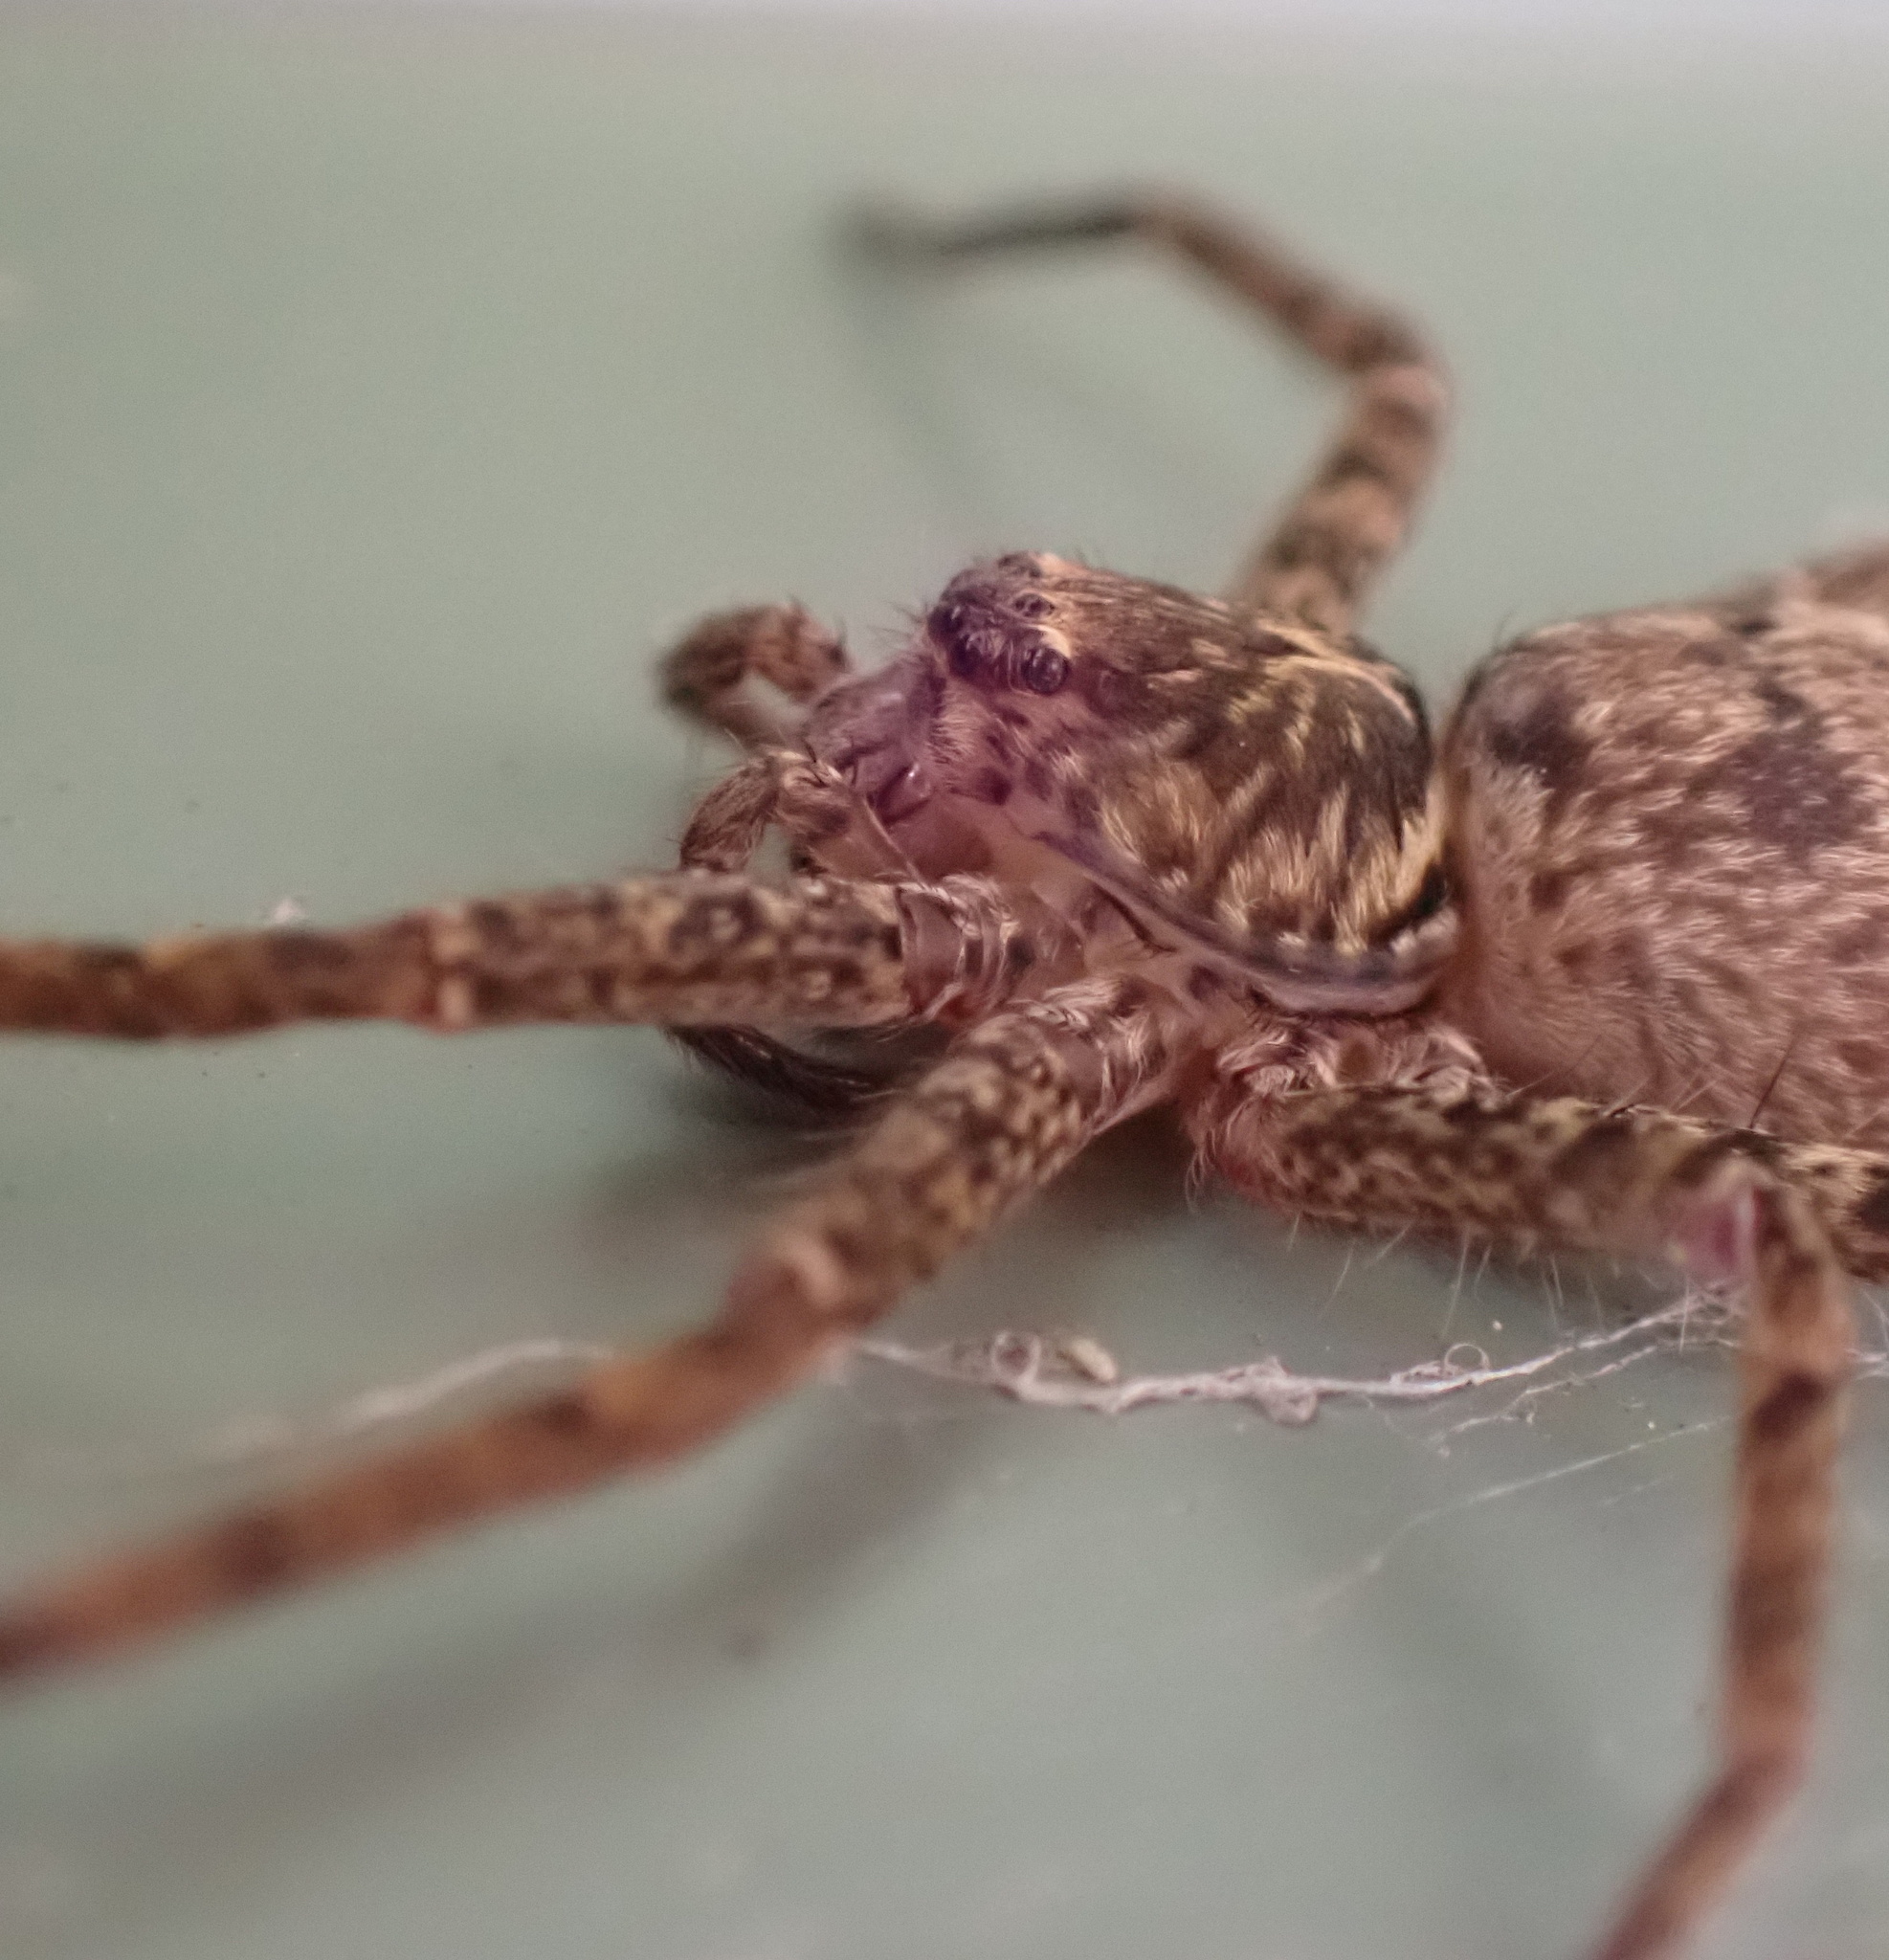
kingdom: Animalia
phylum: Arthropoda
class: Arachnida
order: Araneae
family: Sparassidae
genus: Heteropoda
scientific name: Heteropoda jugulans
